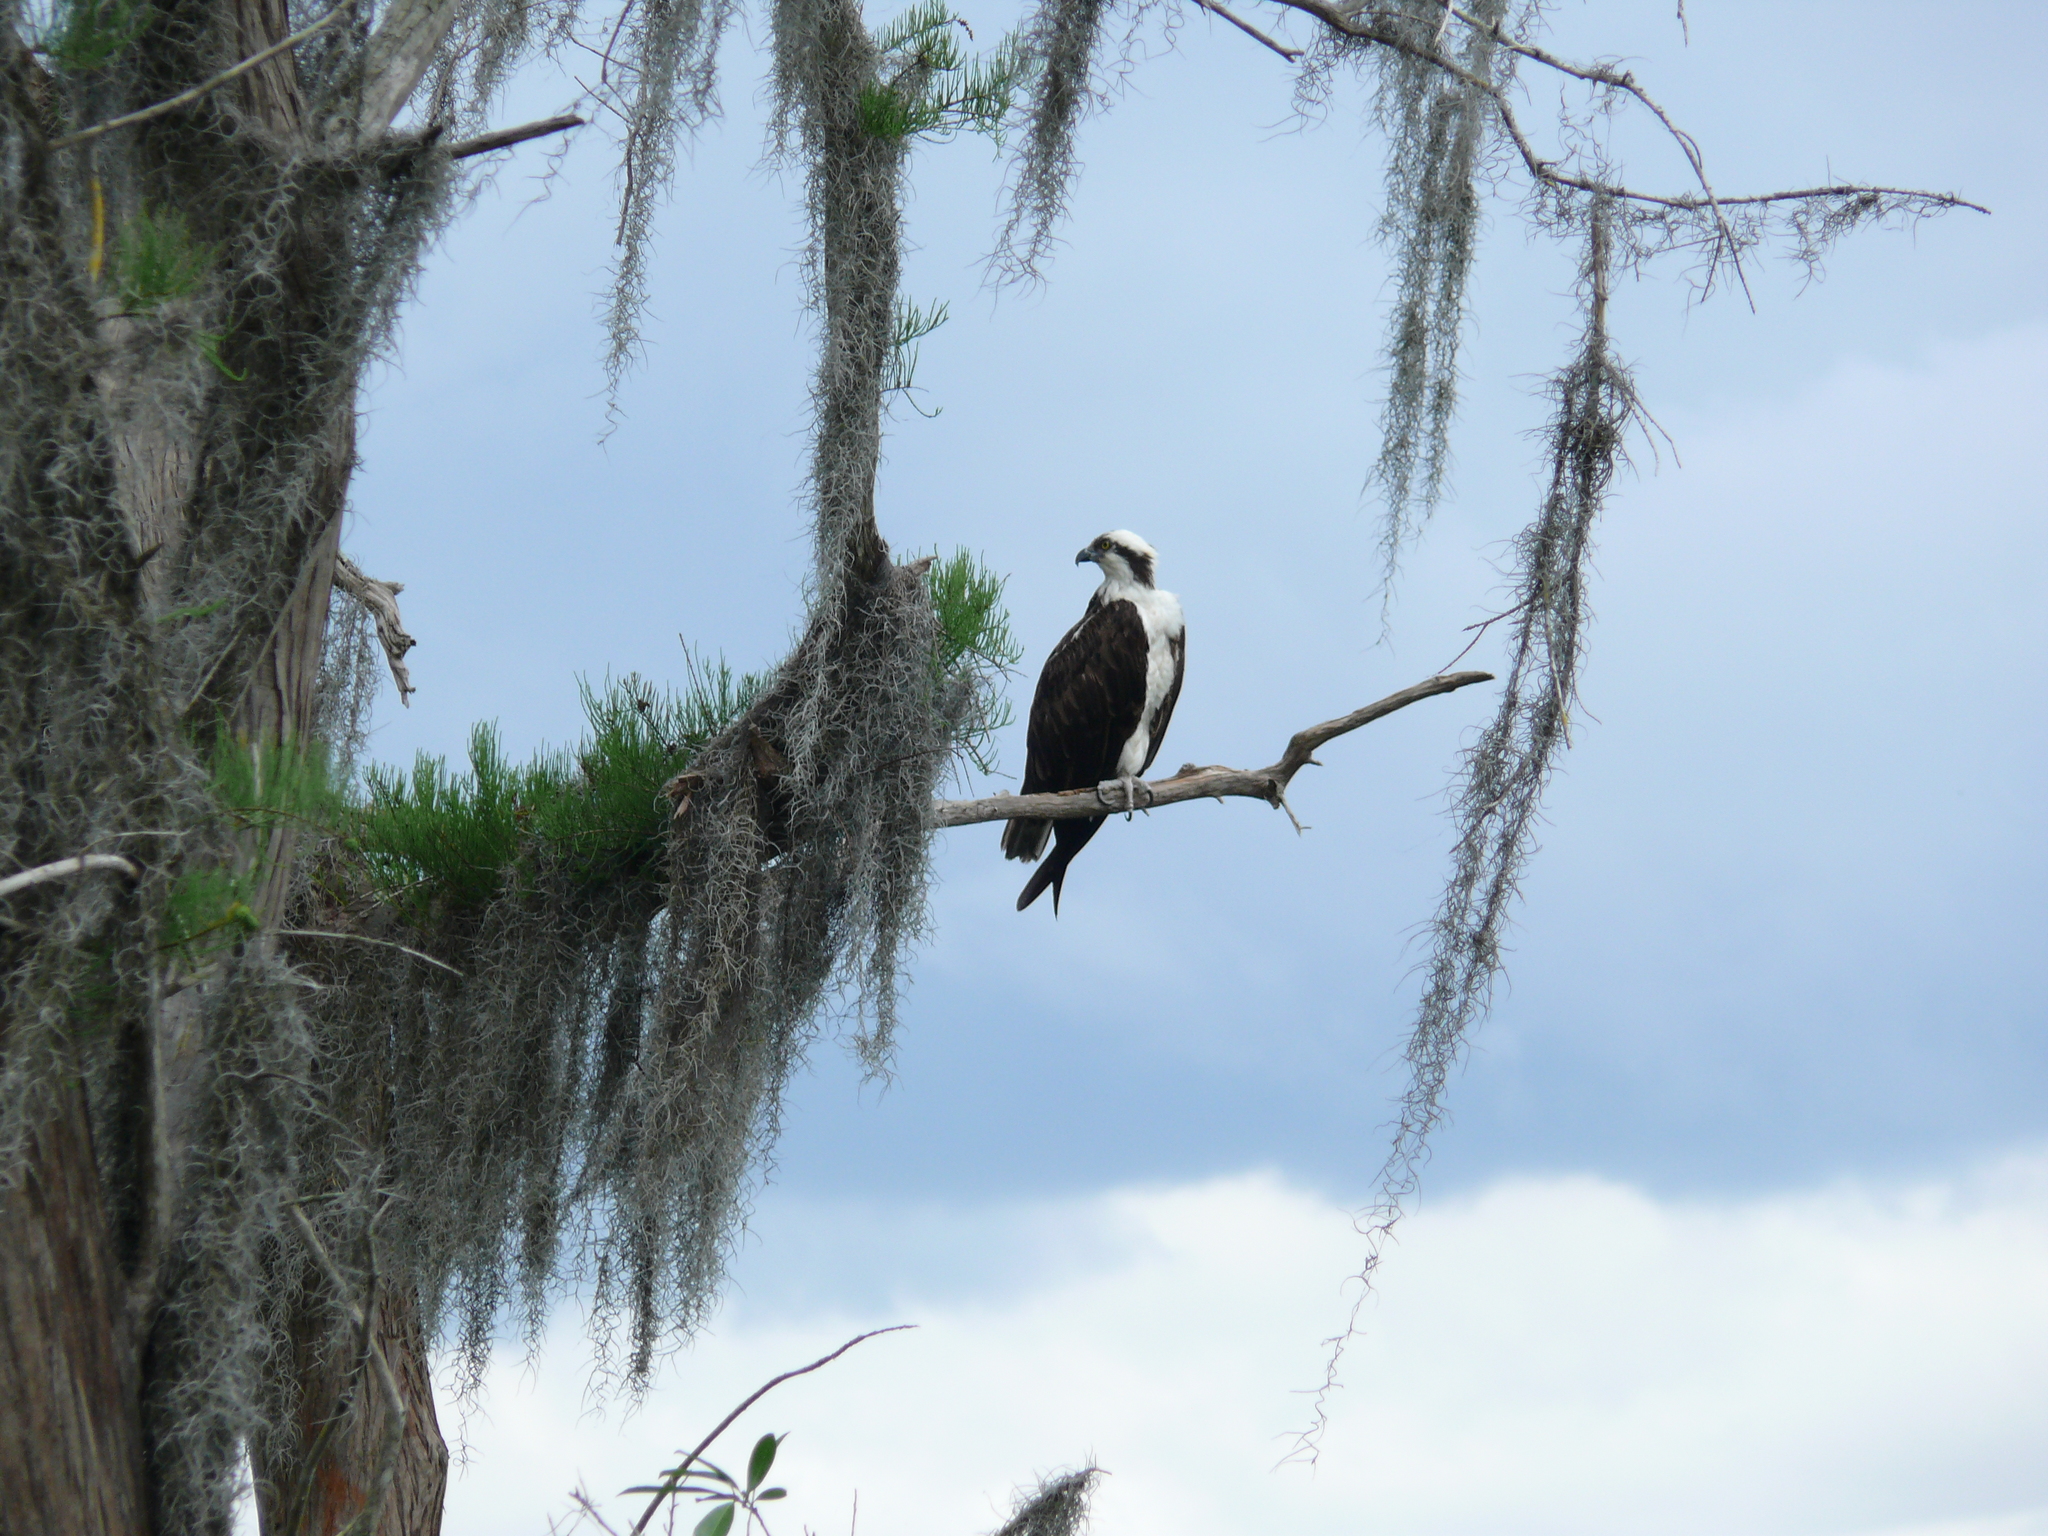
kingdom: Animalia
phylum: Chordata
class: Aves
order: Accipitriformes
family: Pandionidae
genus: Pandion
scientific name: Pandion haliaetus
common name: Osprey
